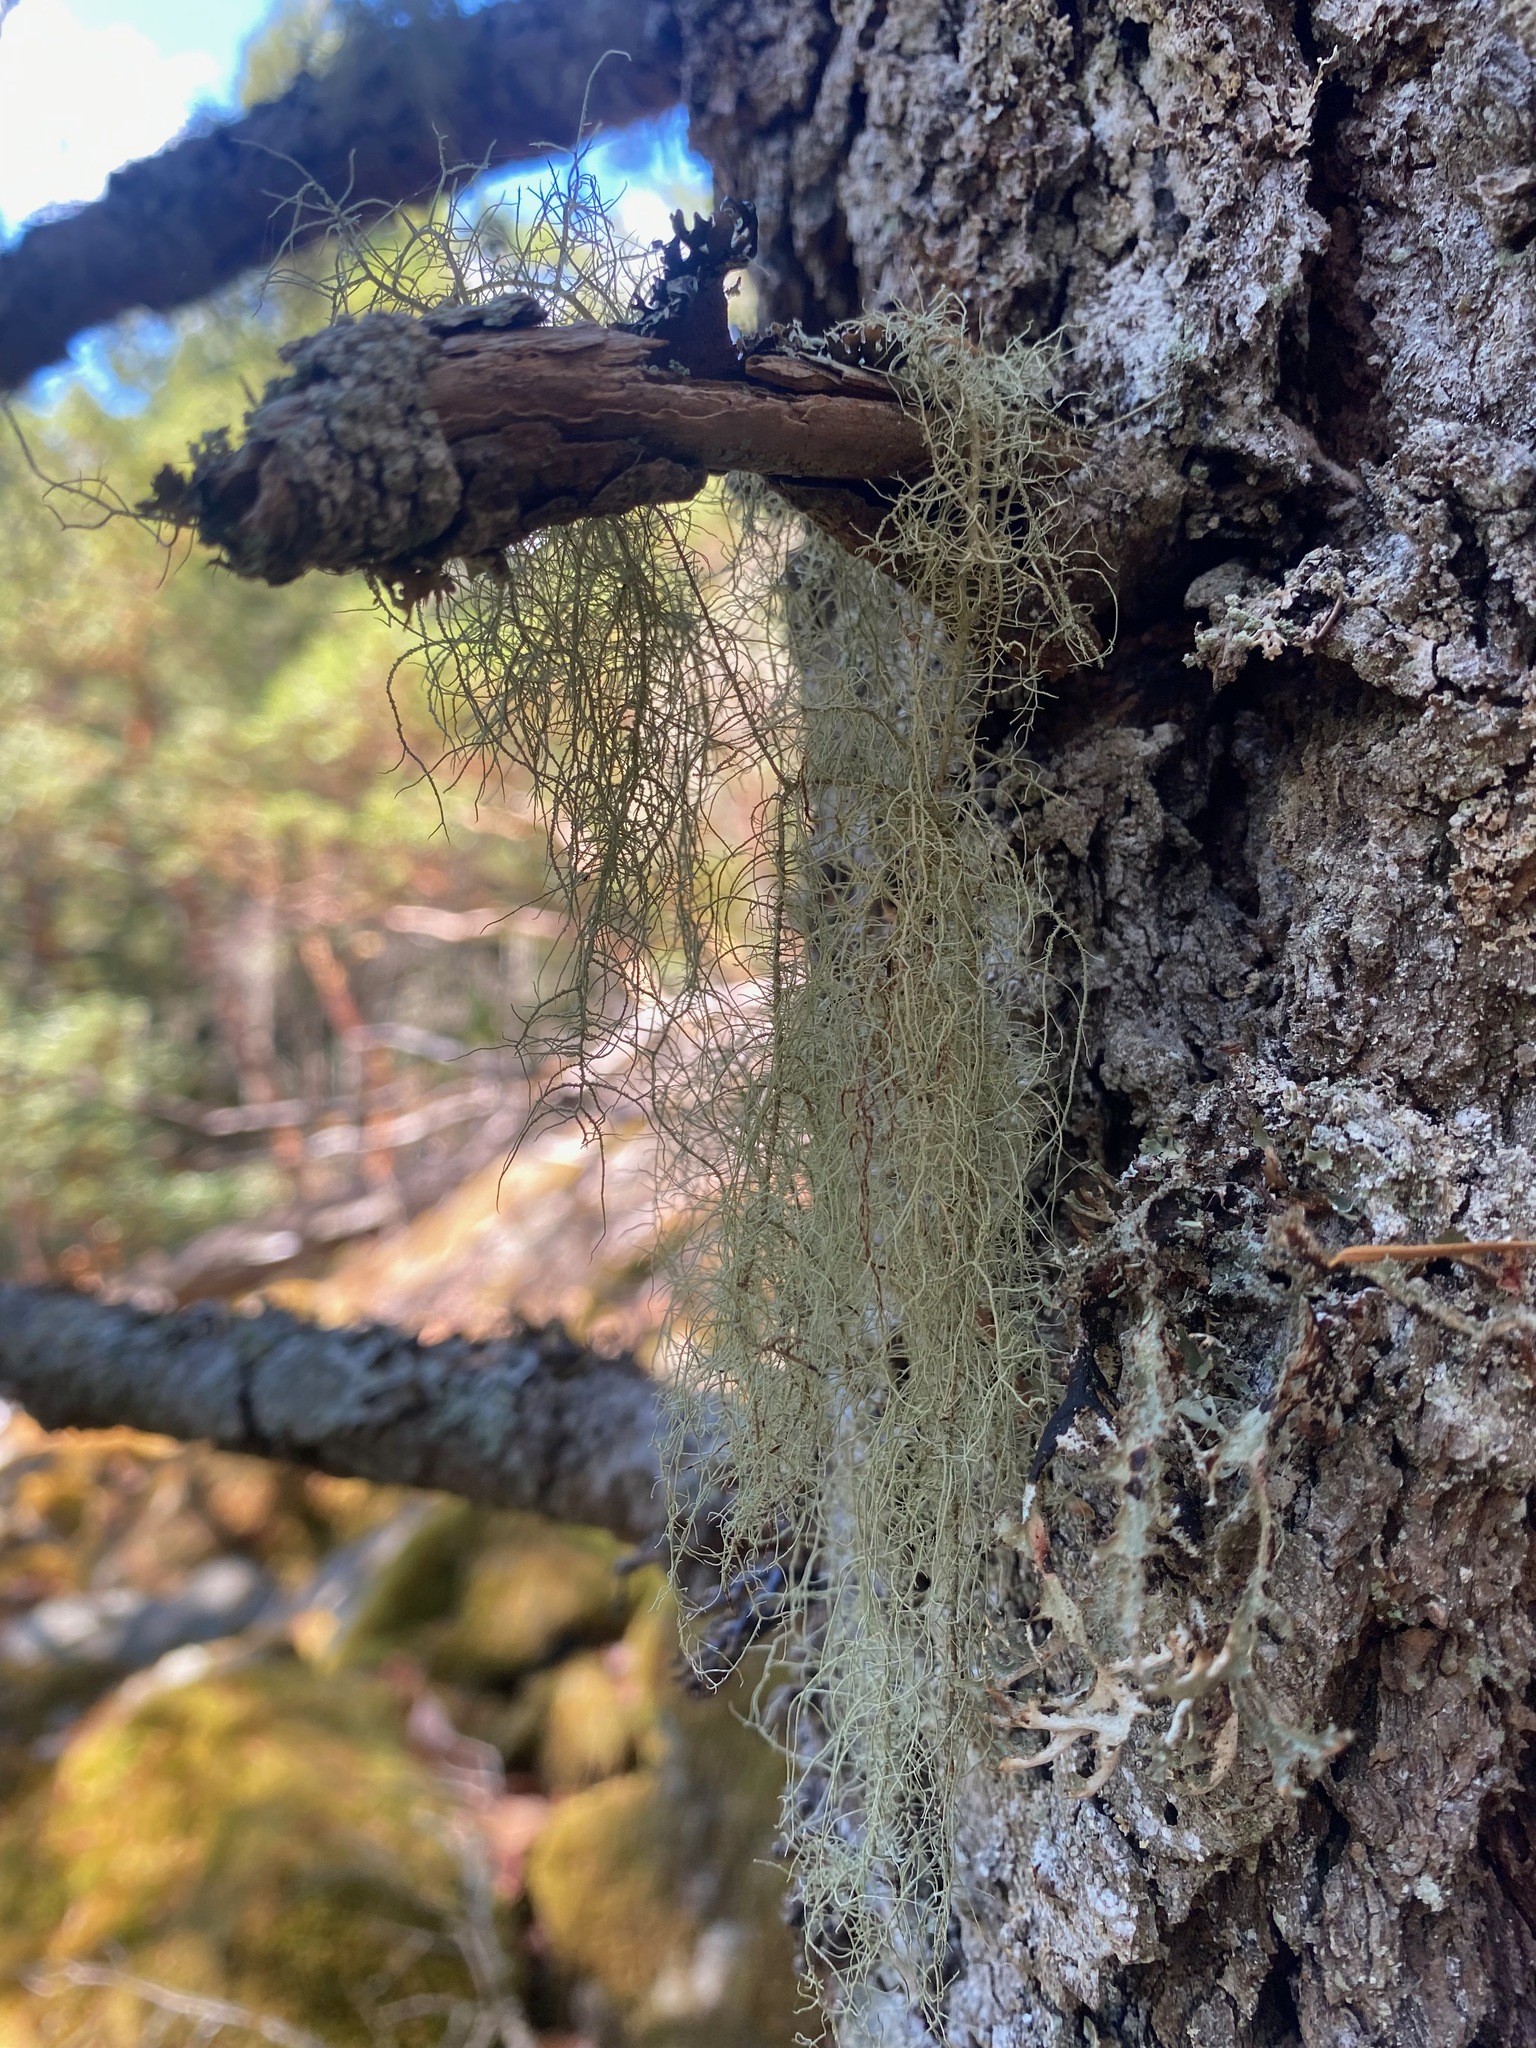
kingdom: Fungi
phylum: Ascomycota
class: Lecanoromycetes
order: Lecanorales
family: Parmeliaceae
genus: Usnea
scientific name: Usnea dasopoga
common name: Fishbone beard lichen
